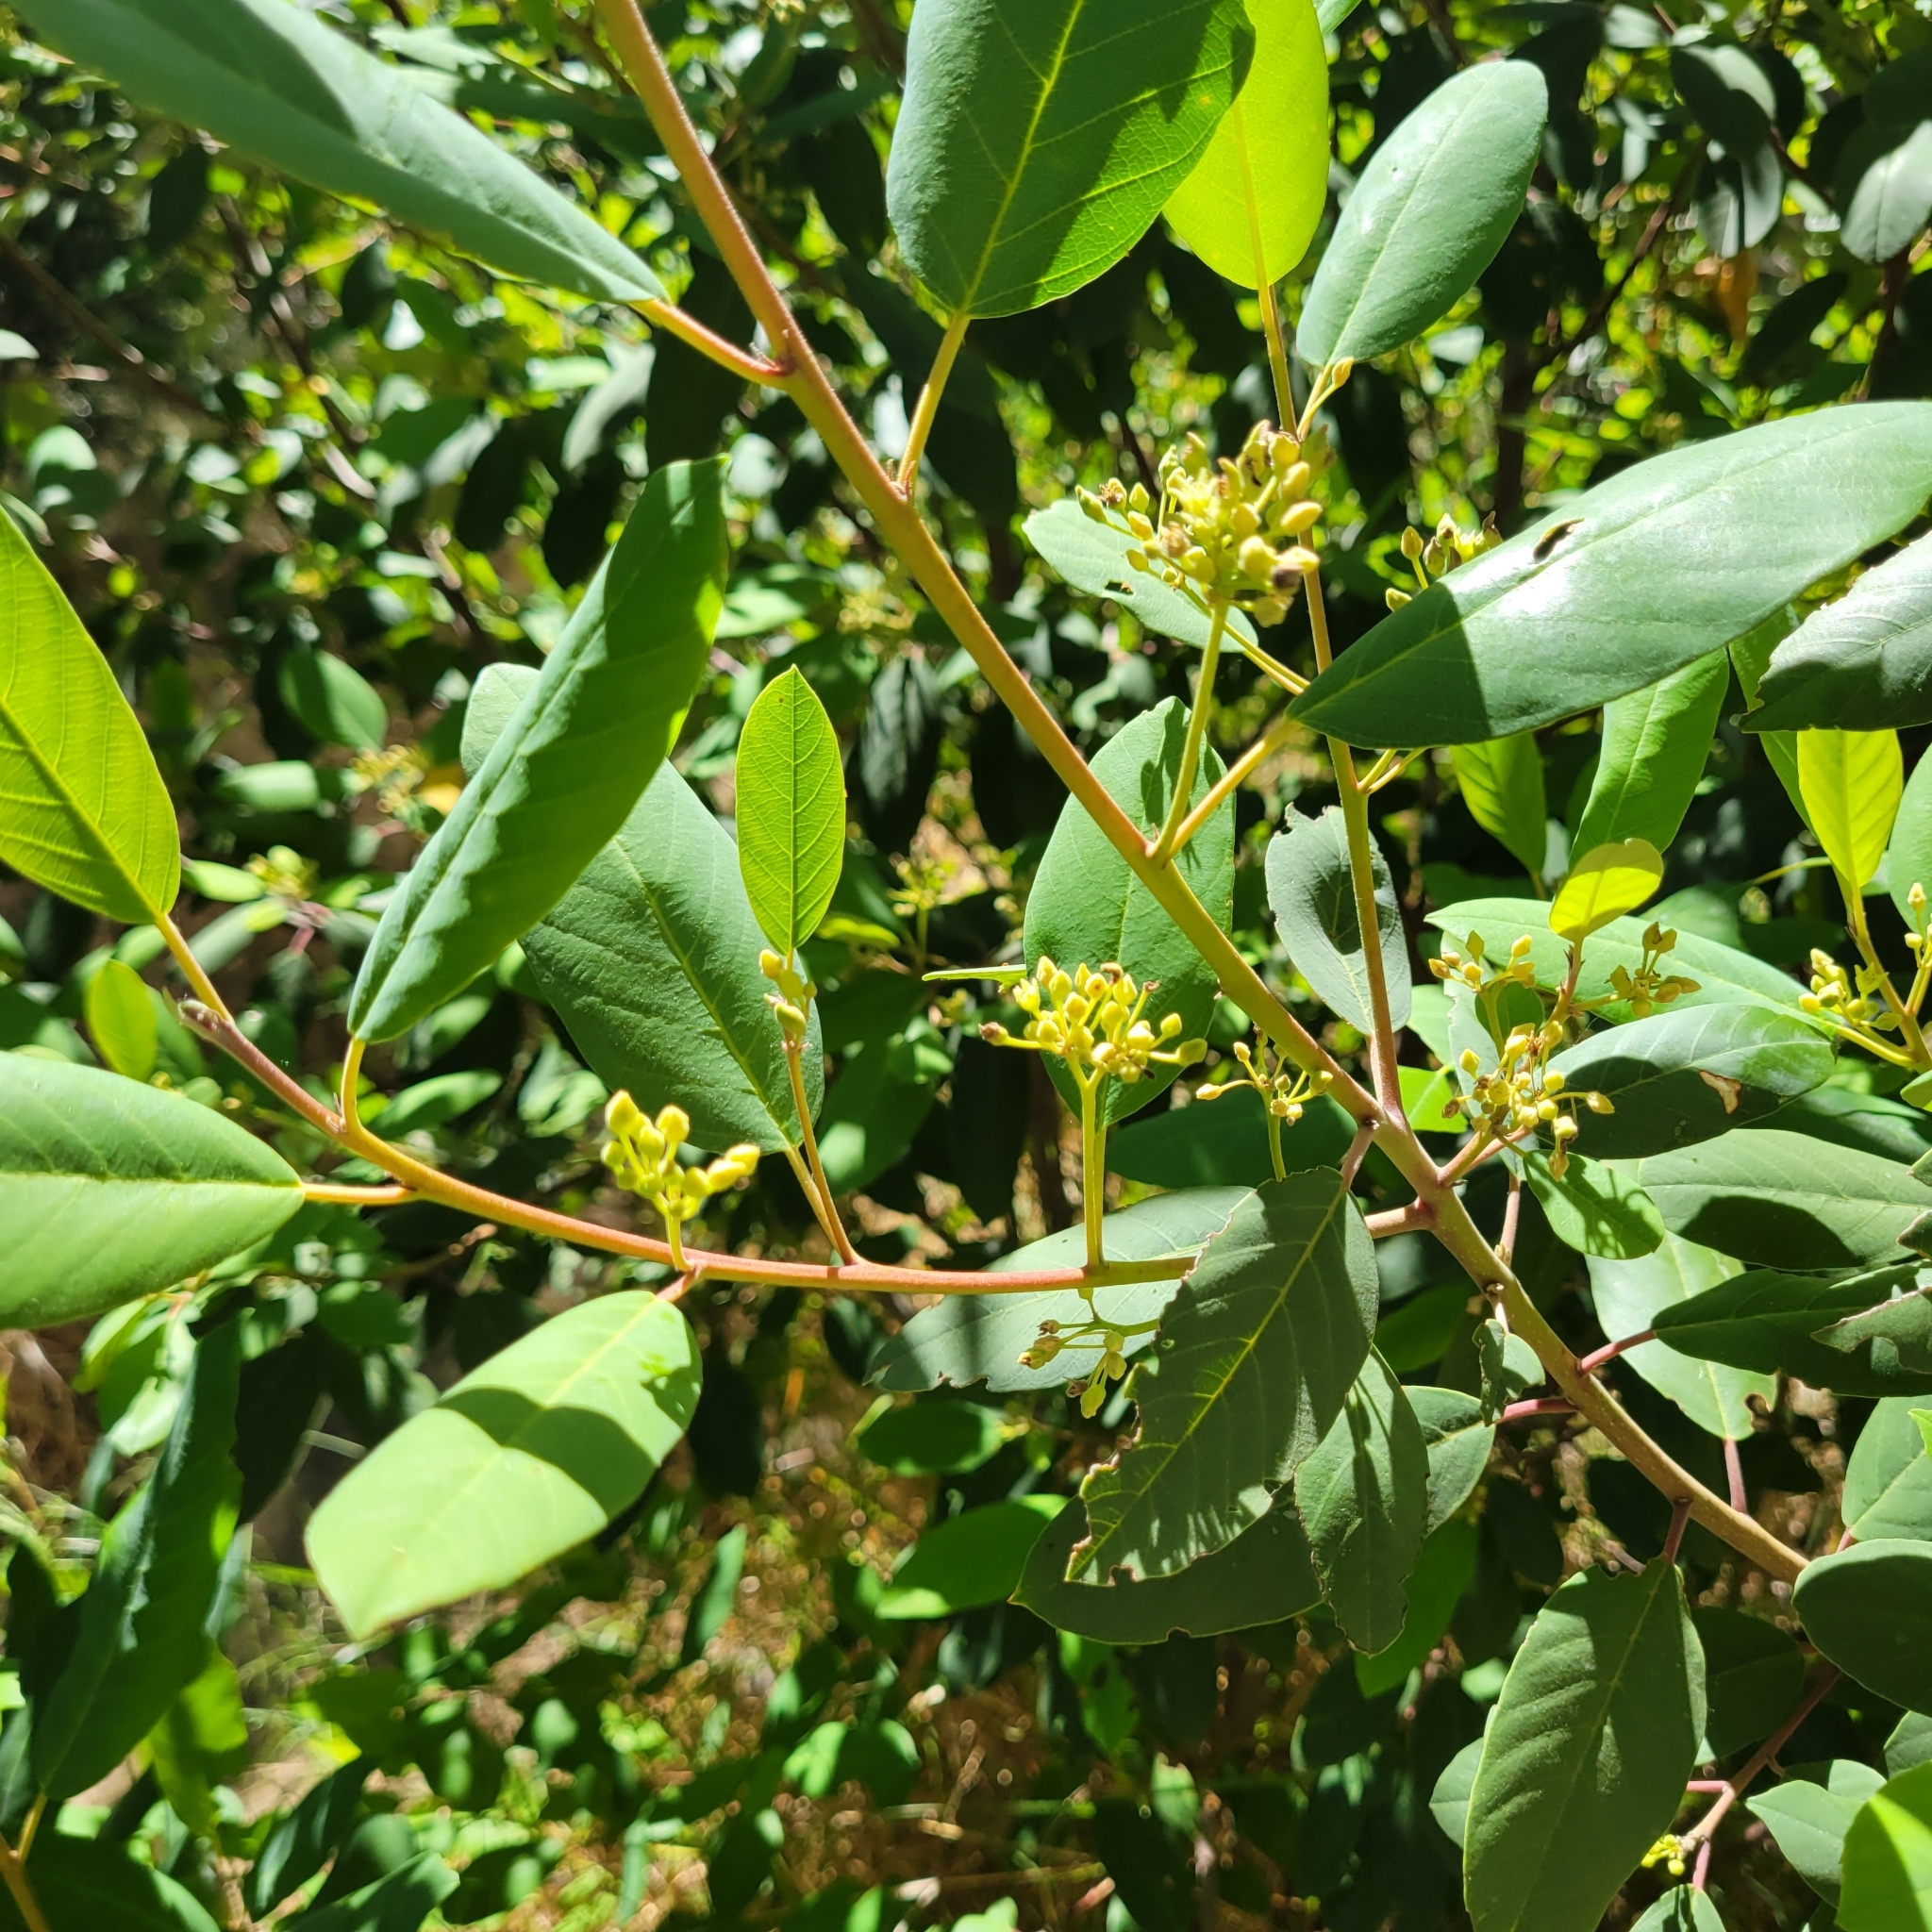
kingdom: Plantae
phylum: Tracheophyta
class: Magnoliopsida
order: Rosales
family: Rhamnaceae
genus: Frangula
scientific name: Frangula californica
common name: California buckthorn
